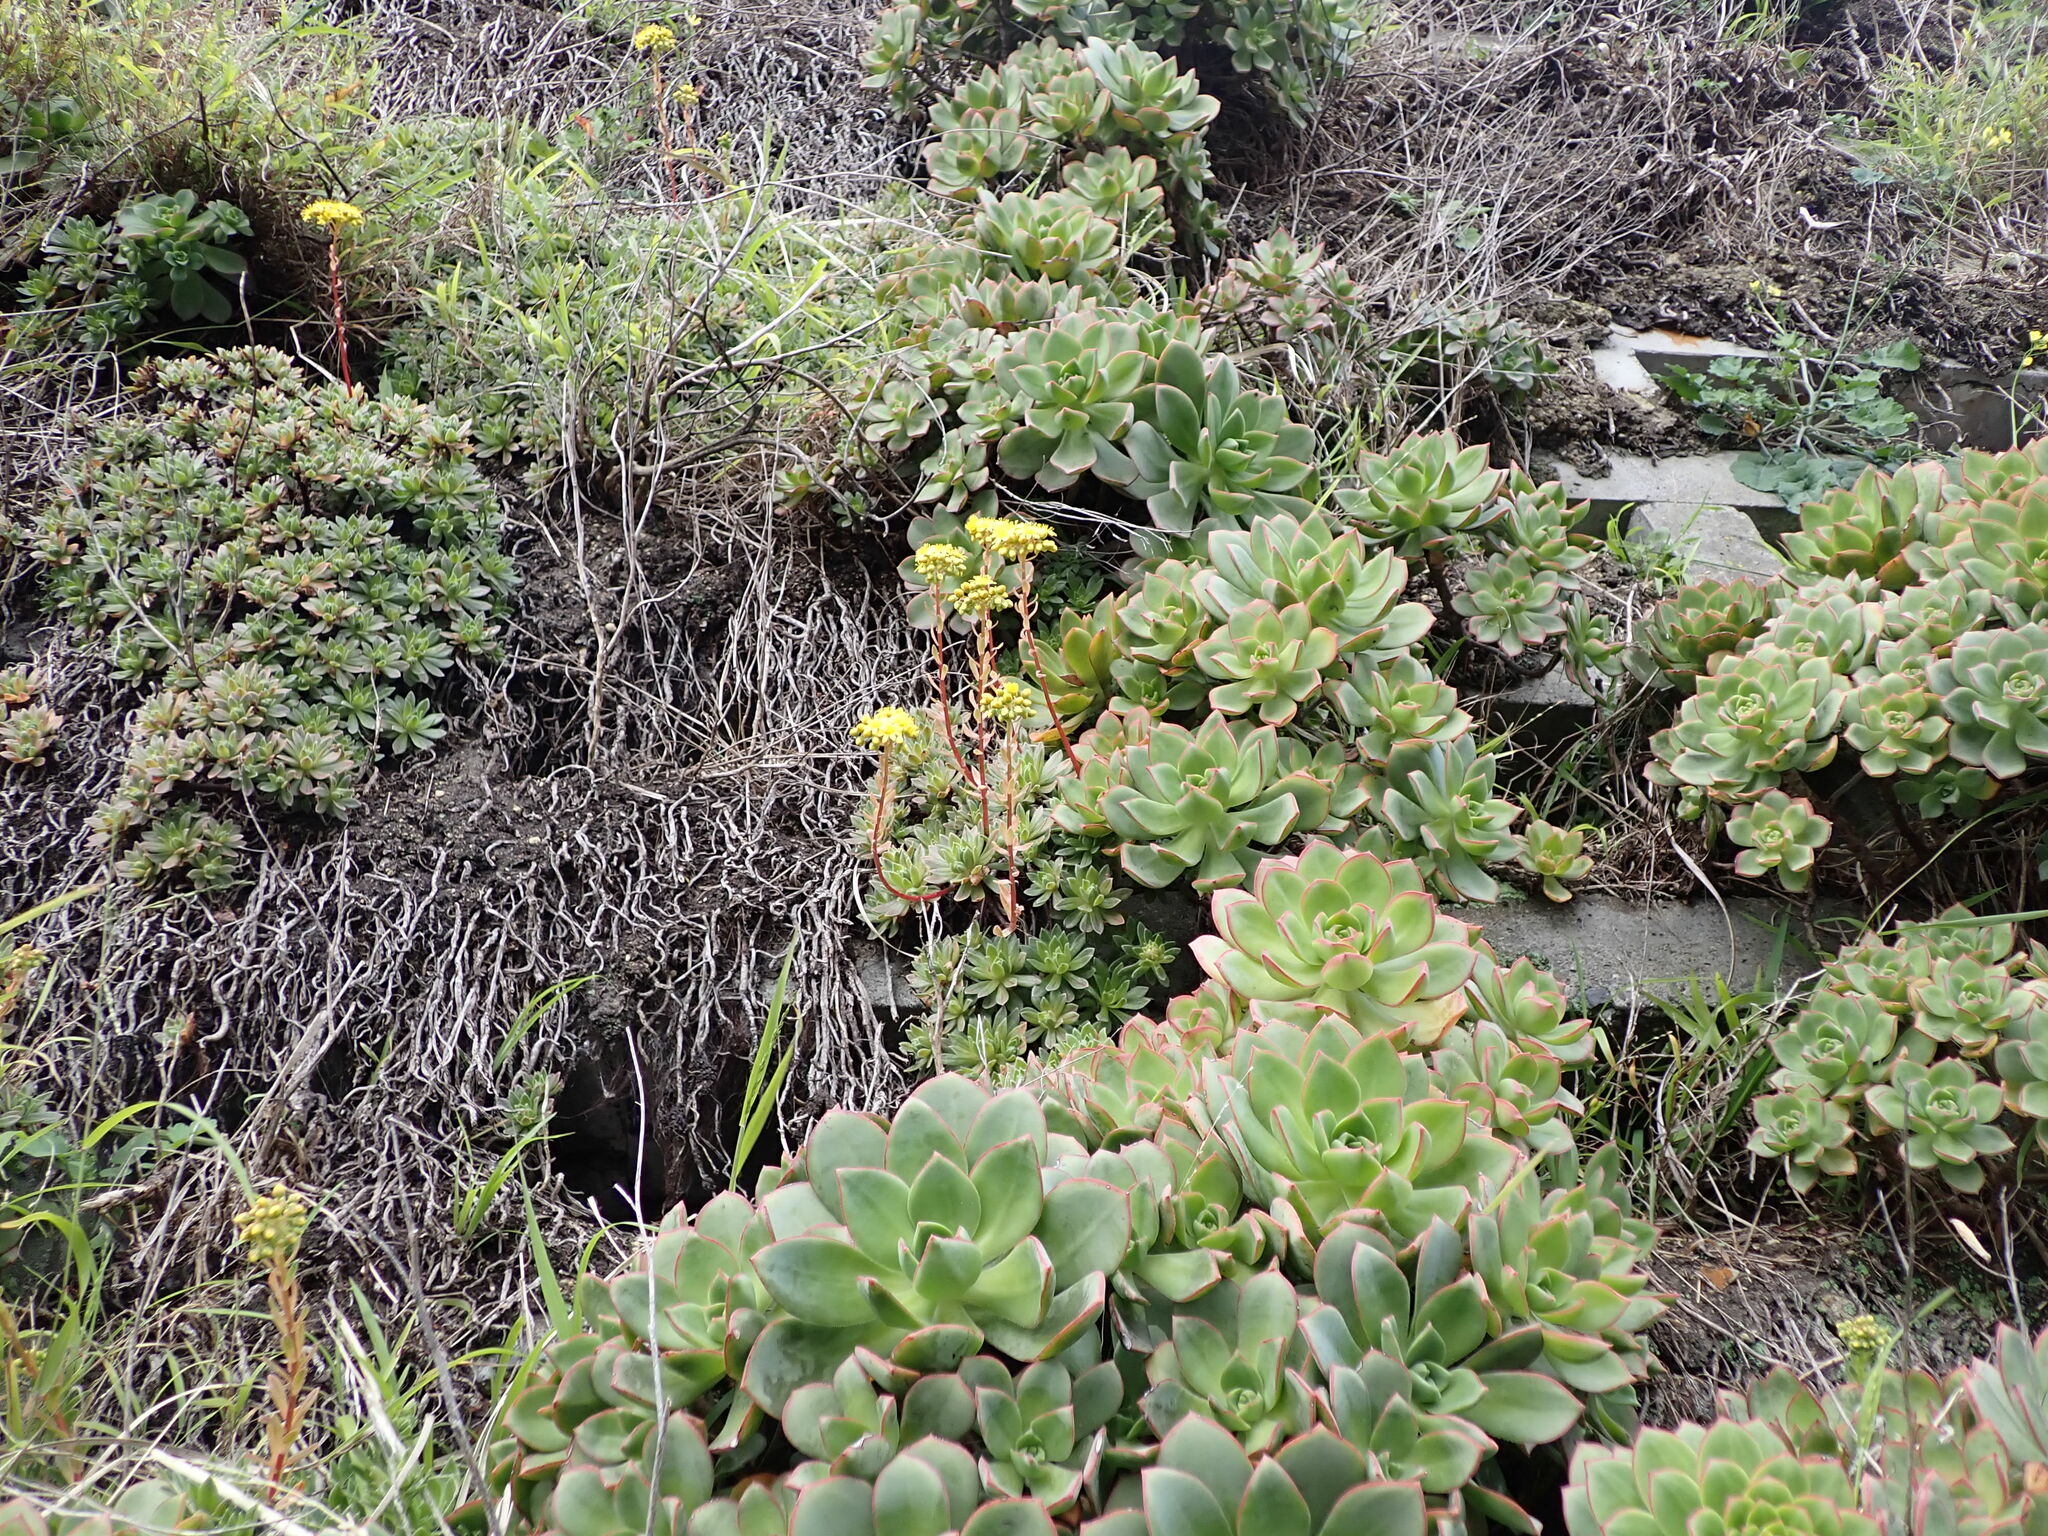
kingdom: Plantae
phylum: Tracheophyta
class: Magnoliopsida
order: Saxifragales
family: Crassulaceae
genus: Aeonium
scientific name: Aeonium barbatum
